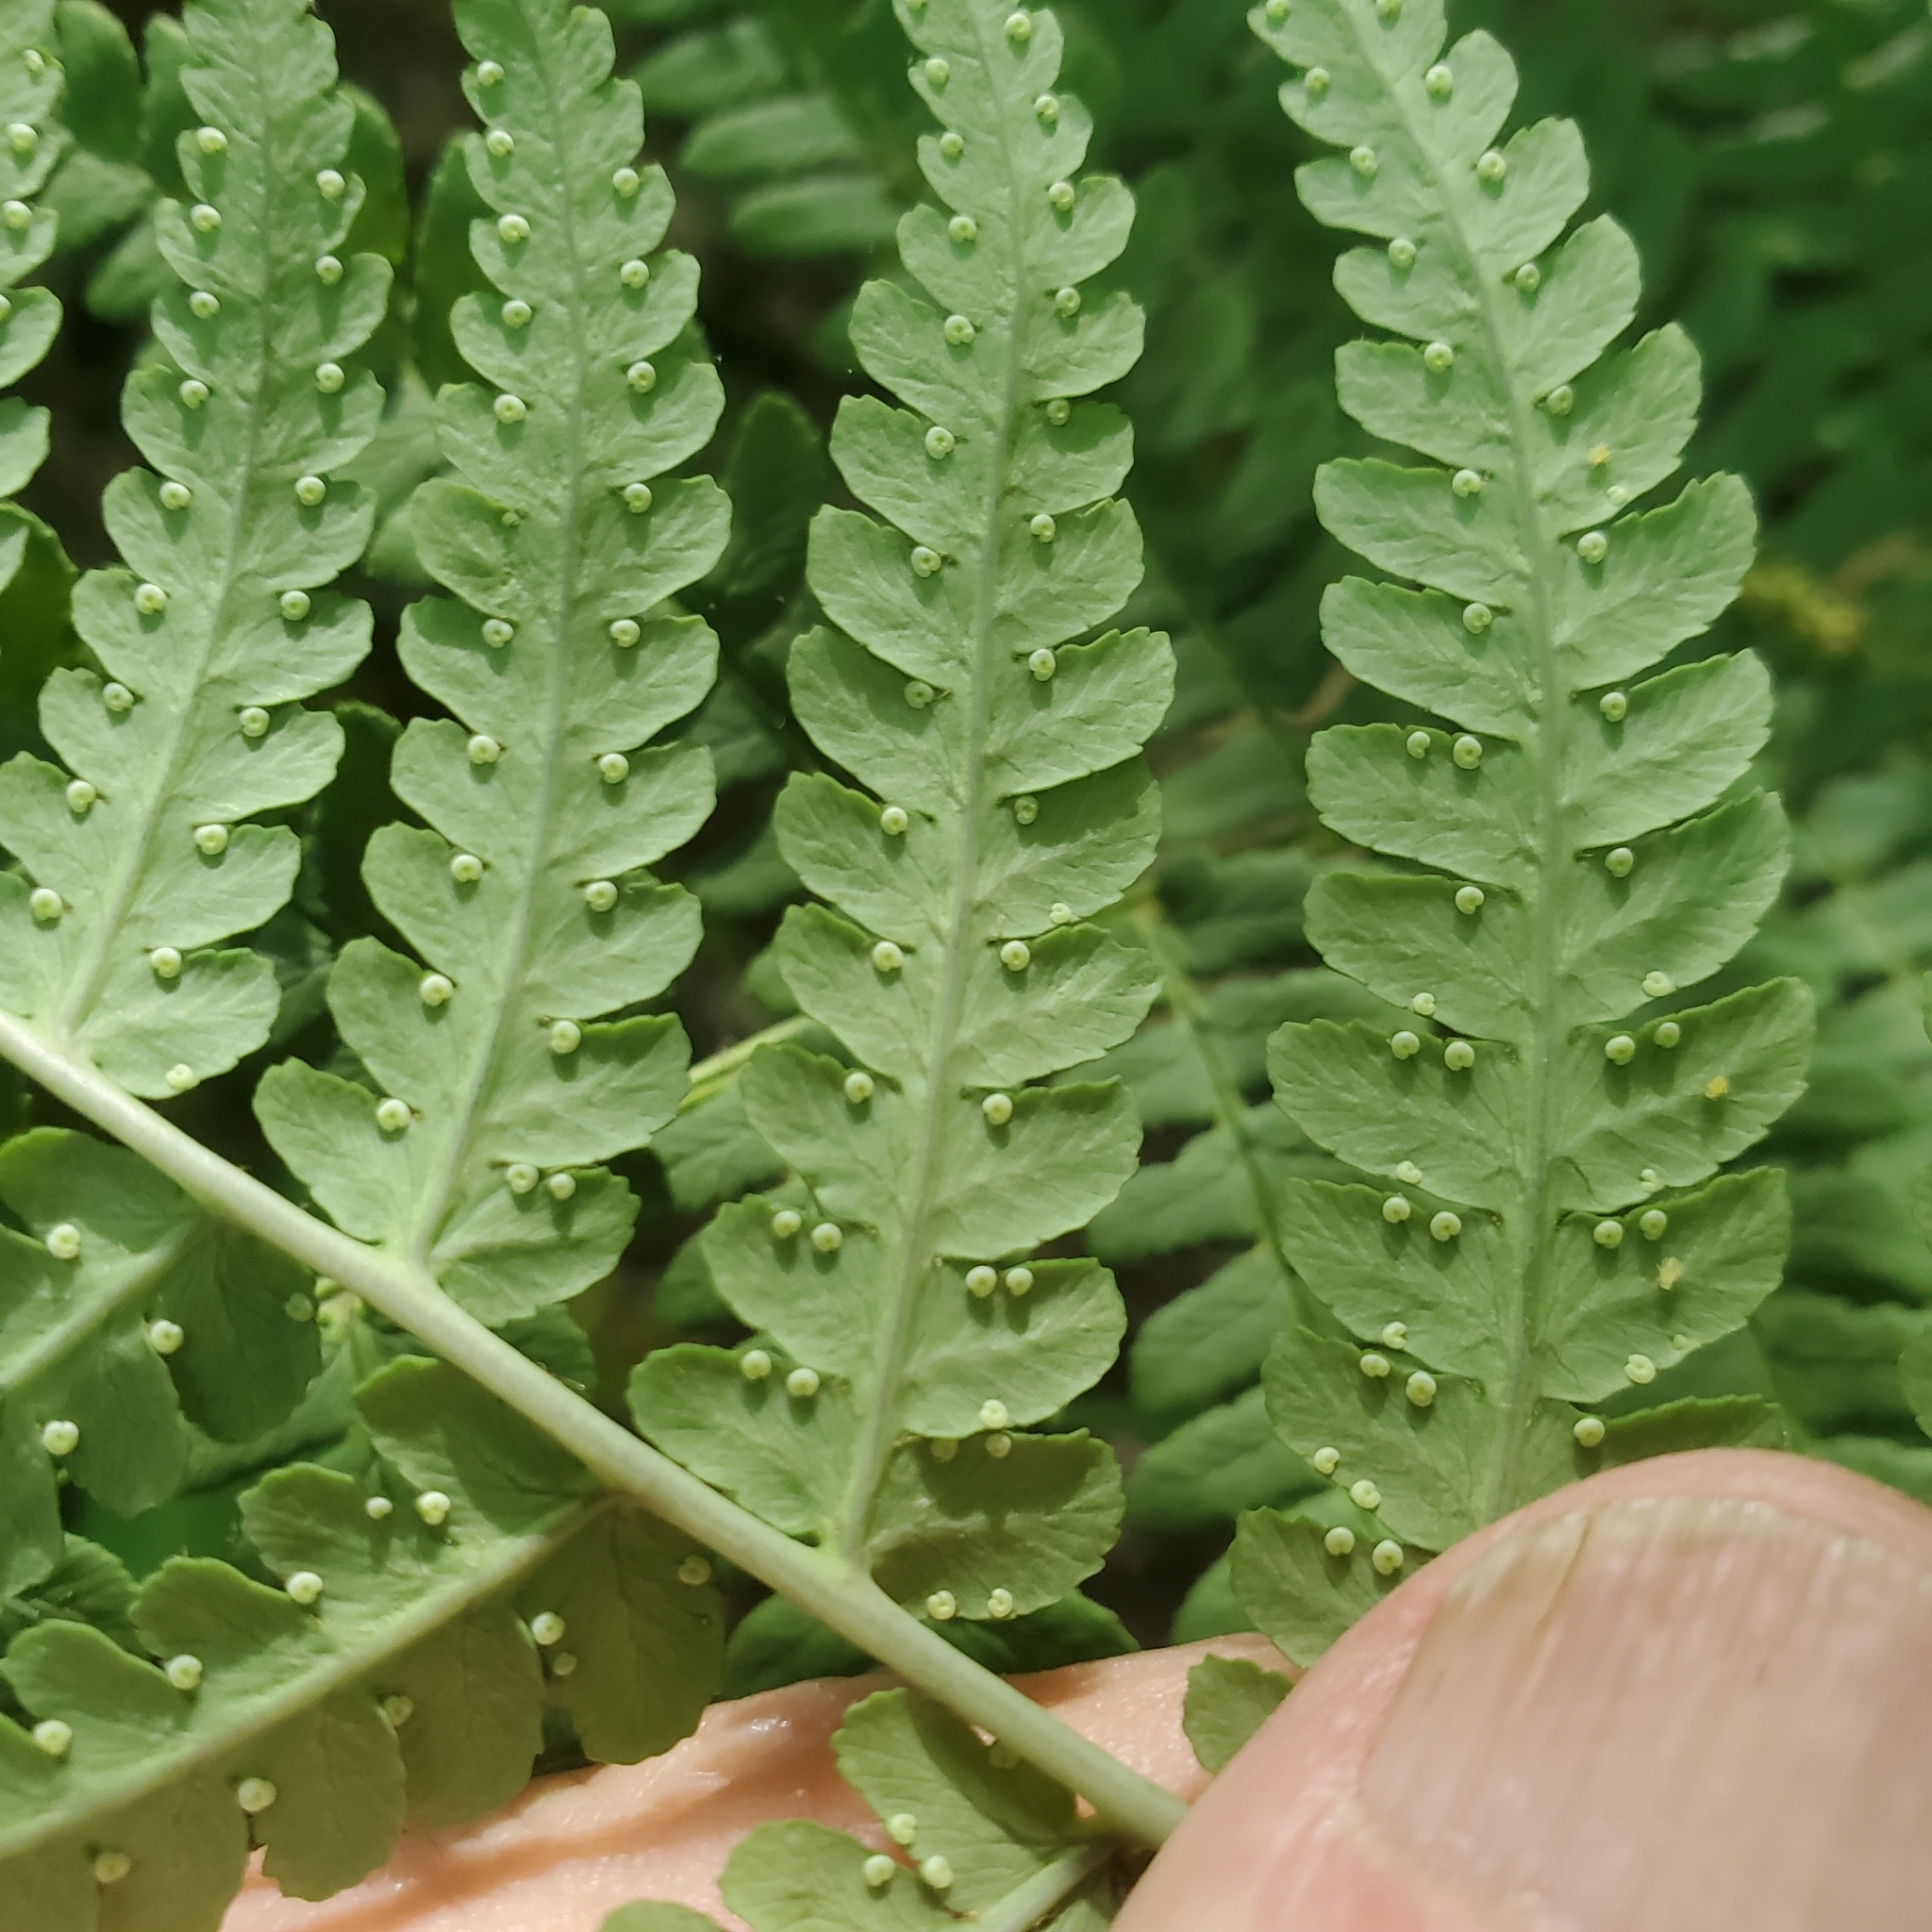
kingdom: Plantae
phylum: Tracheophyta
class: Polypodiopsida
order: Polypodiales
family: Dryopteridaceae
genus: Dryopteris
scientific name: Dryopteris marginalis
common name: Marginal wood fern
